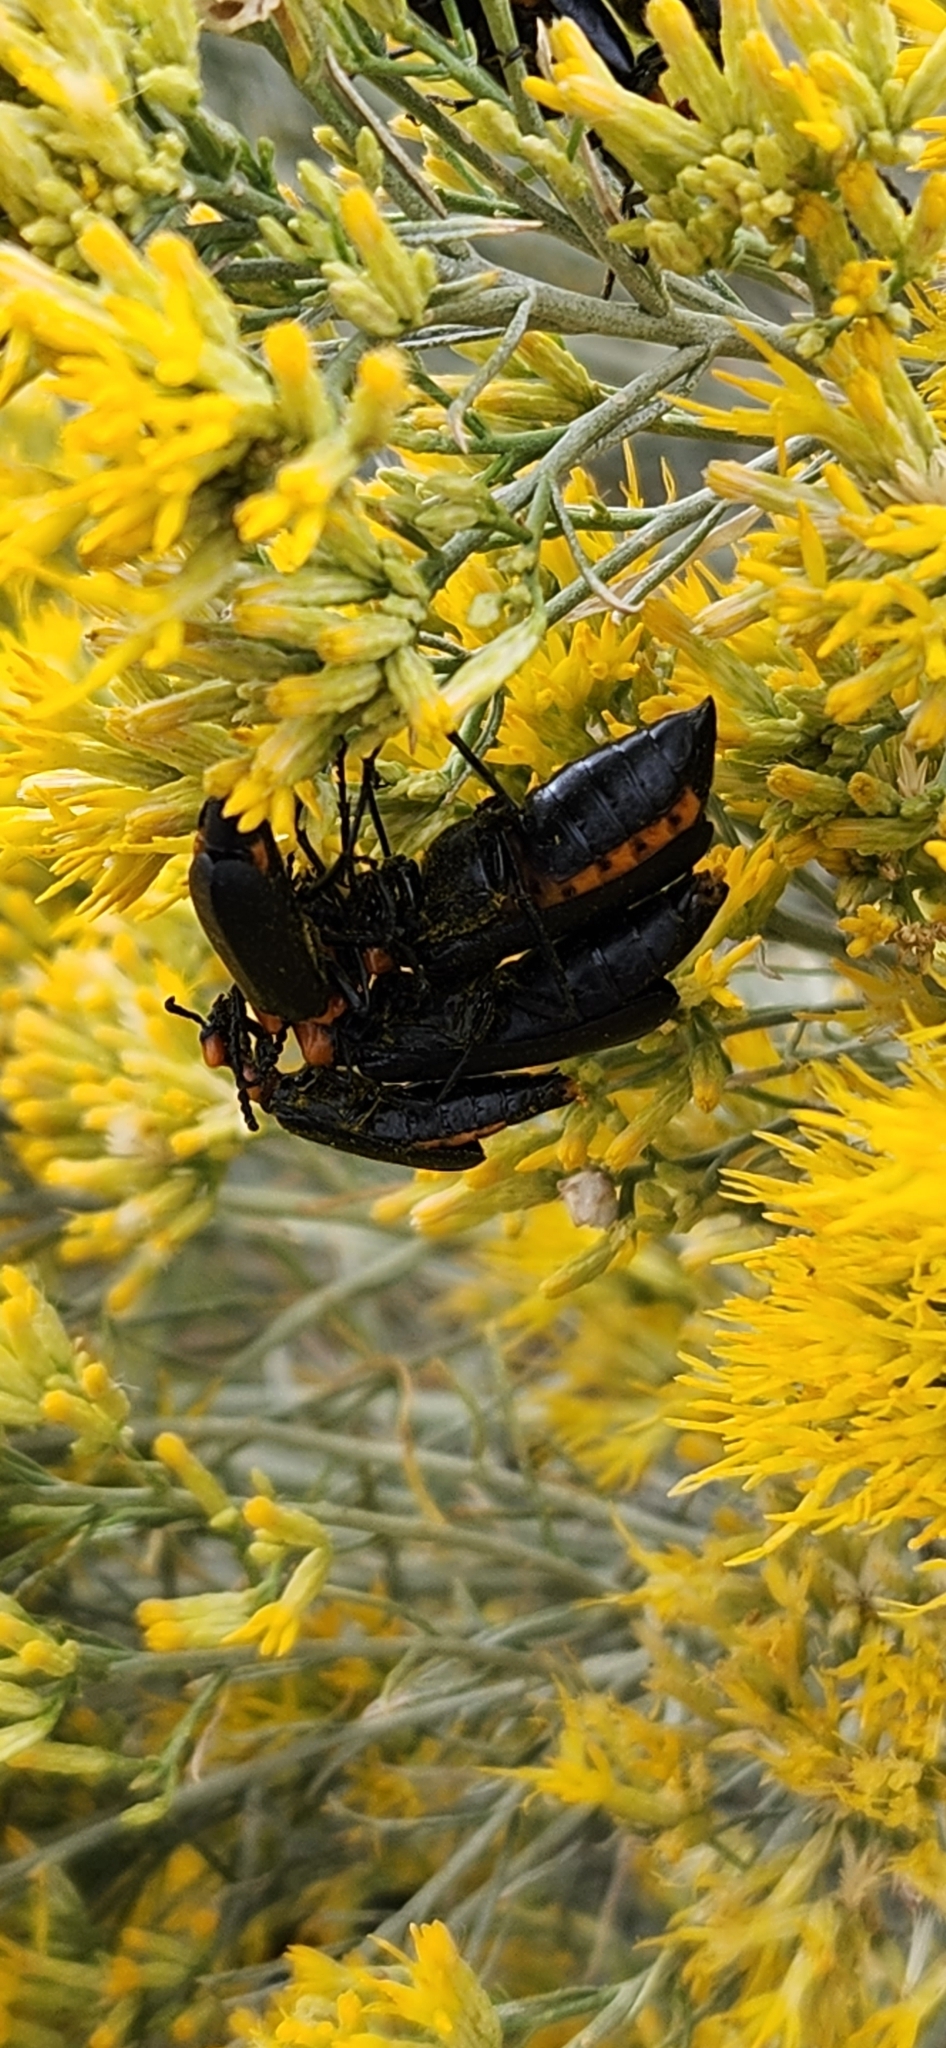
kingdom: Animalia
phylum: Arthropoda
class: Insecta
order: Coleoptera
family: Meloidae
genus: Lytta
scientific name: Lytta vulnerata
